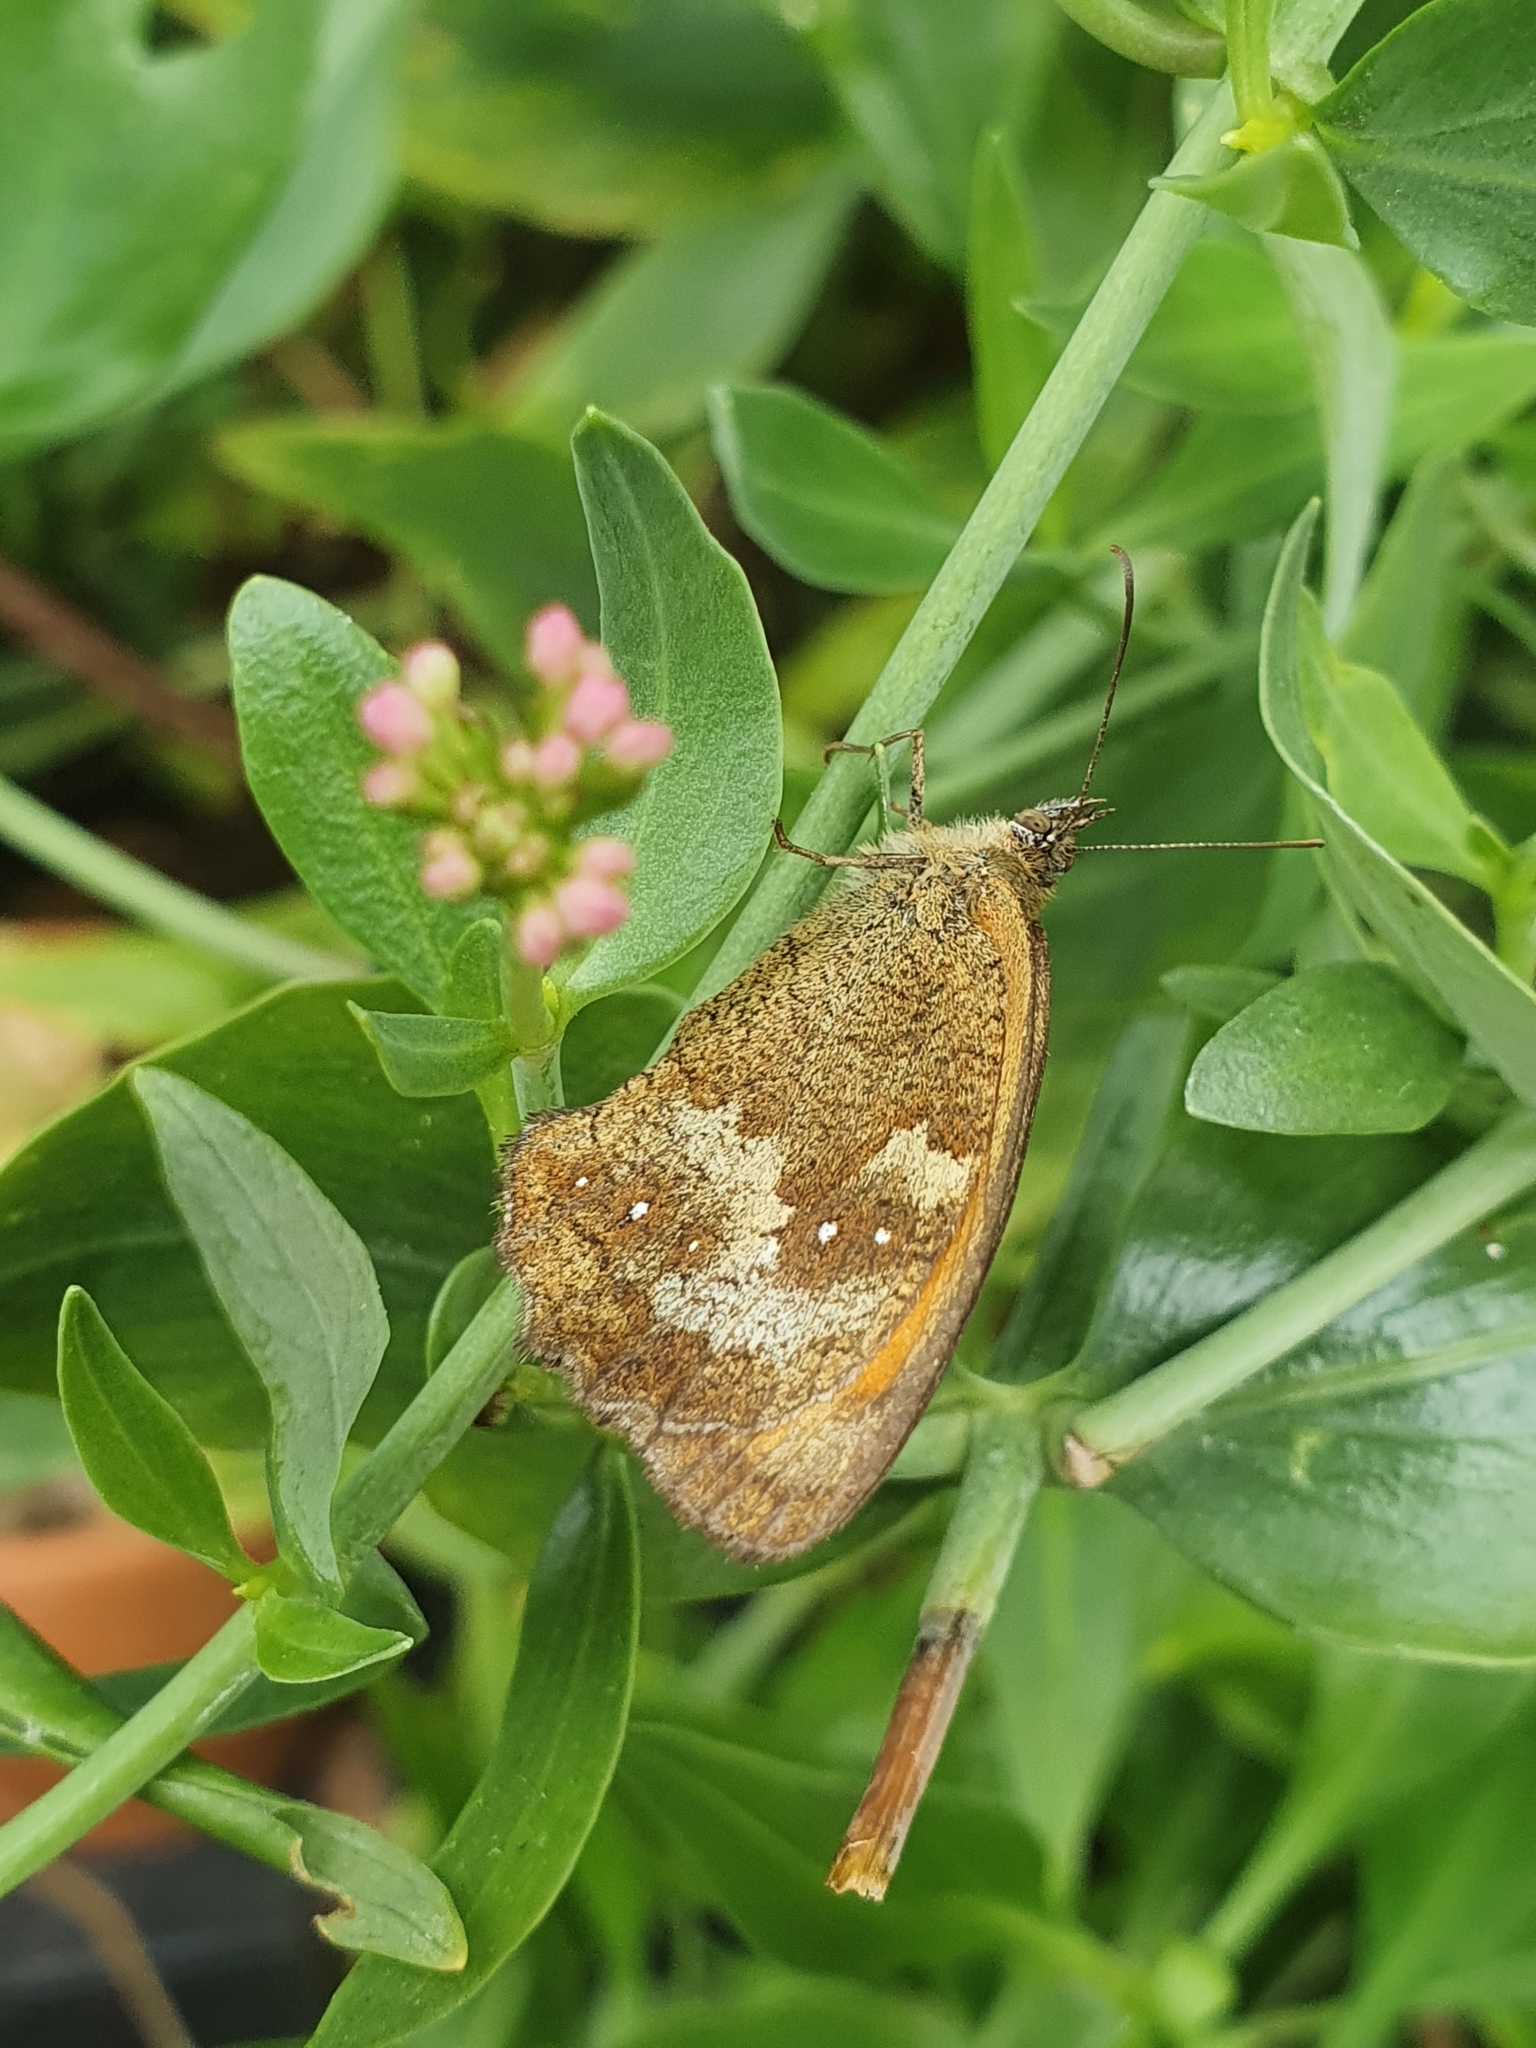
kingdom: Animalia
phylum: Arthropoda
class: Insecta
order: Lepidoptera
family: Nymphalidae
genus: Pyronia
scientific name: Pyronia tithonus
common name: Gatekeeper
